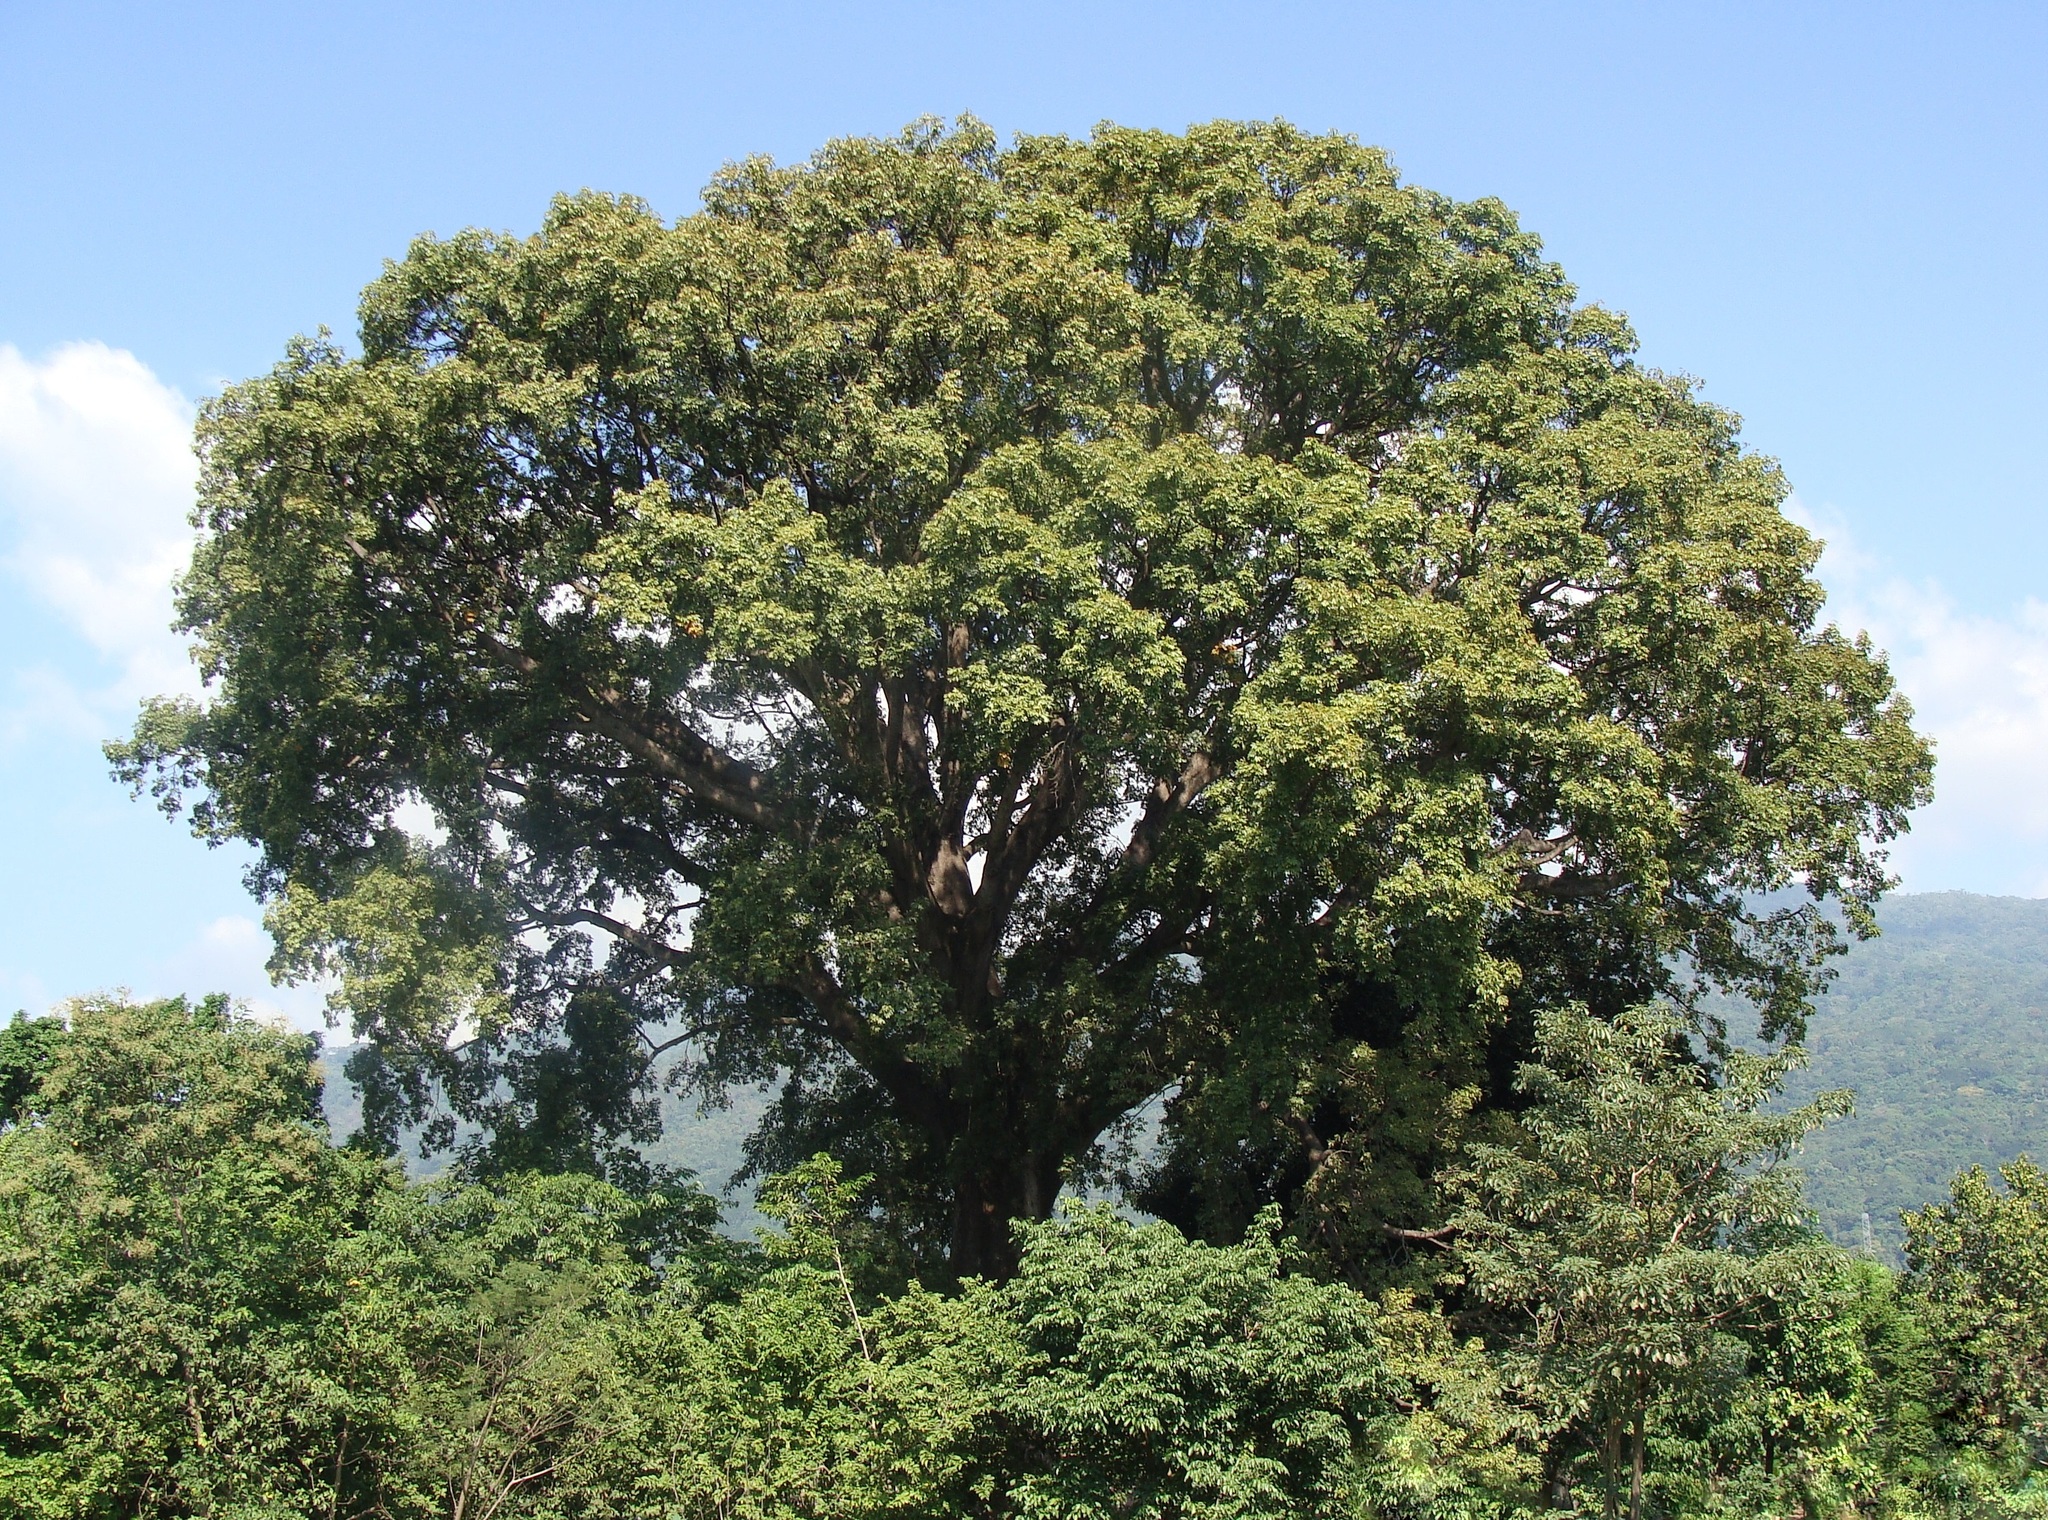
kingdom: Plantae
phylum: Tracheophyta
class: Magnoliopsida
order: Malvales
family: Malvaceae
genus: Ceiba
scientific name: Ceiba pentandra
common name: Kapok
